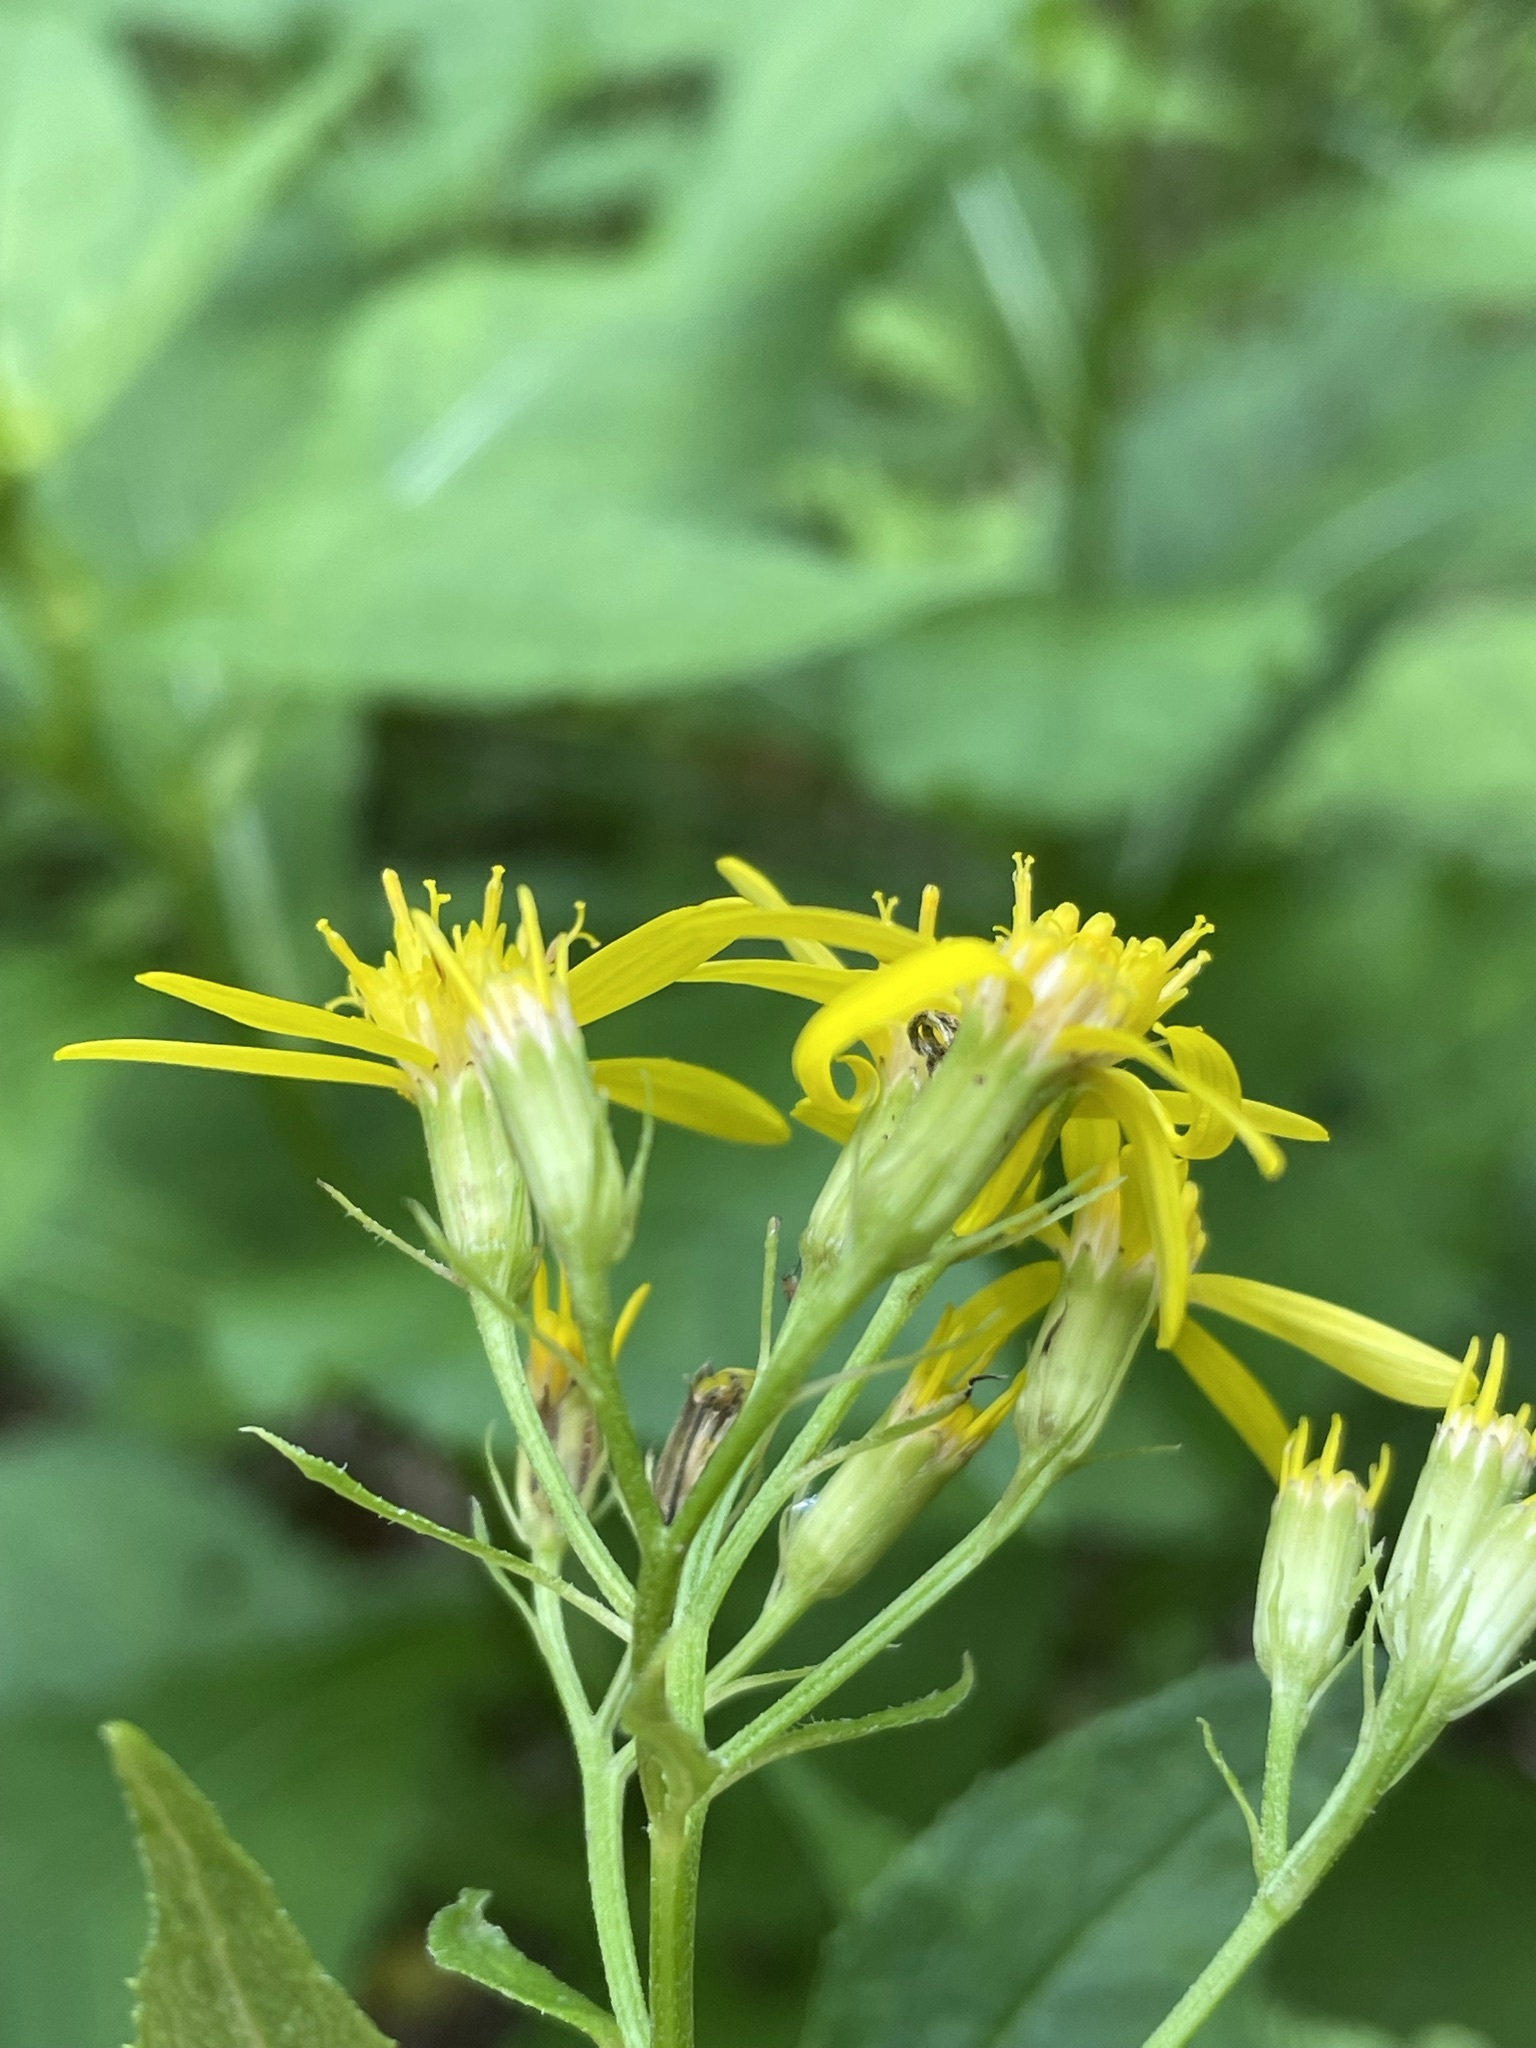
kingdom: Plantae
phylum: Tracheophyta
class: Magnoliopsida
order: Asterales
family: Asteraceae
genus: Senecio
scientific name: Senecio germanicus
